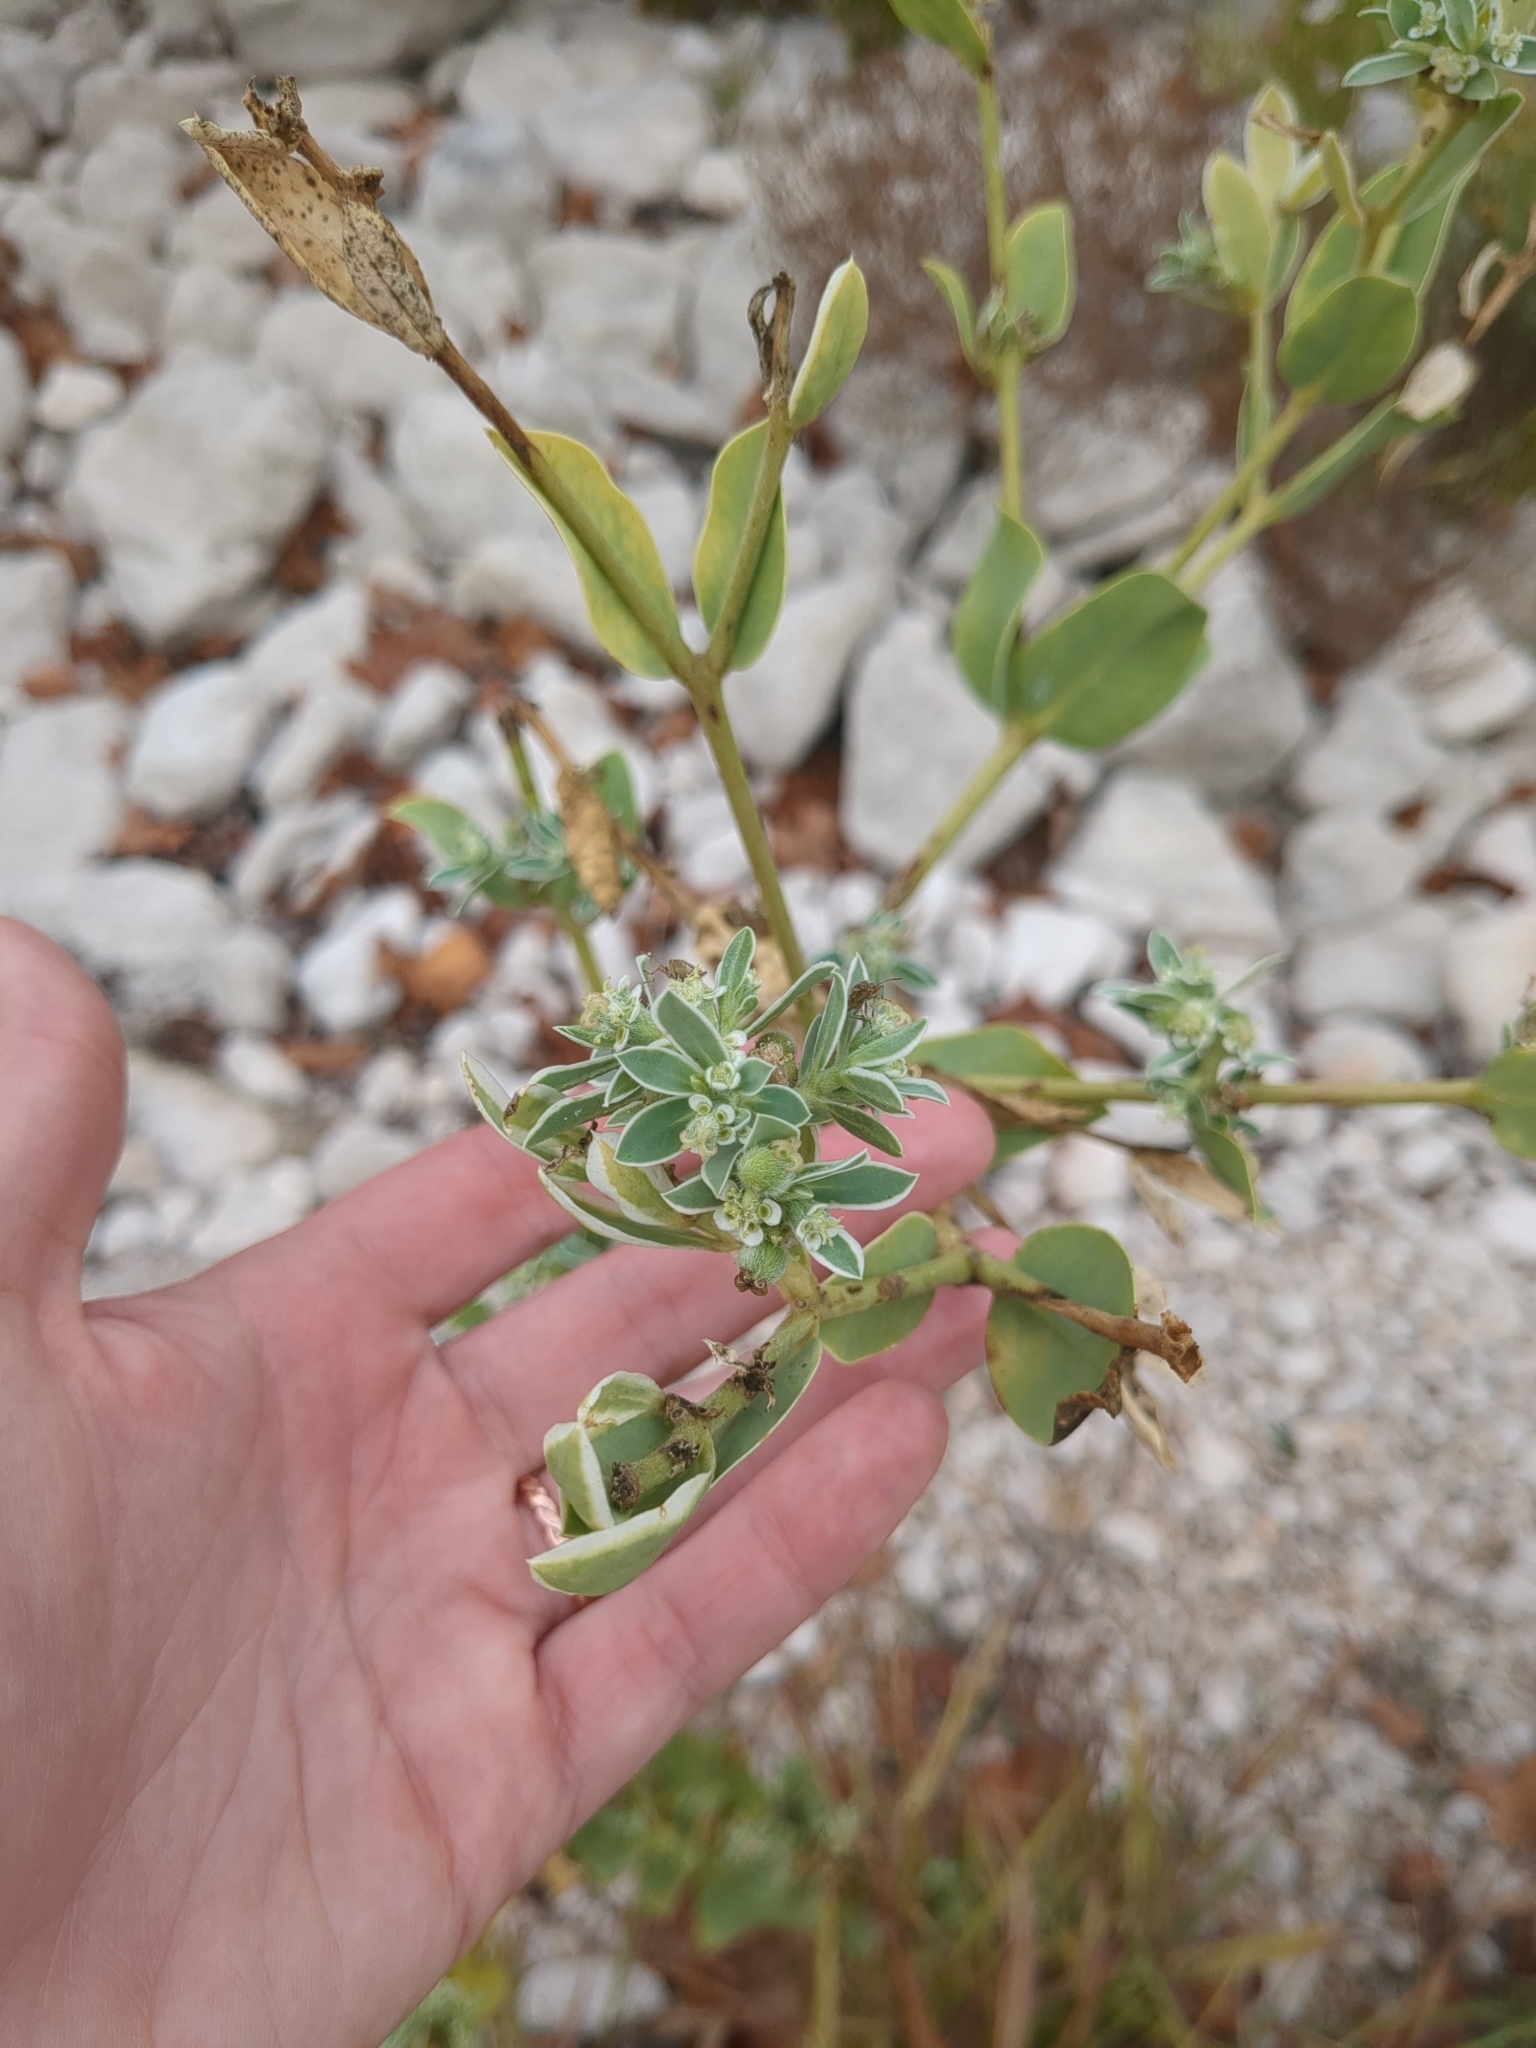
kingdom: Plantae
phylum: Tracheophyta
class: Magnoliopsida
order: Malpighiales
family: Euphorbiaceae
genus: Euphorbia
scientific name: Euphorbia marginata
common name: Ghostweed
